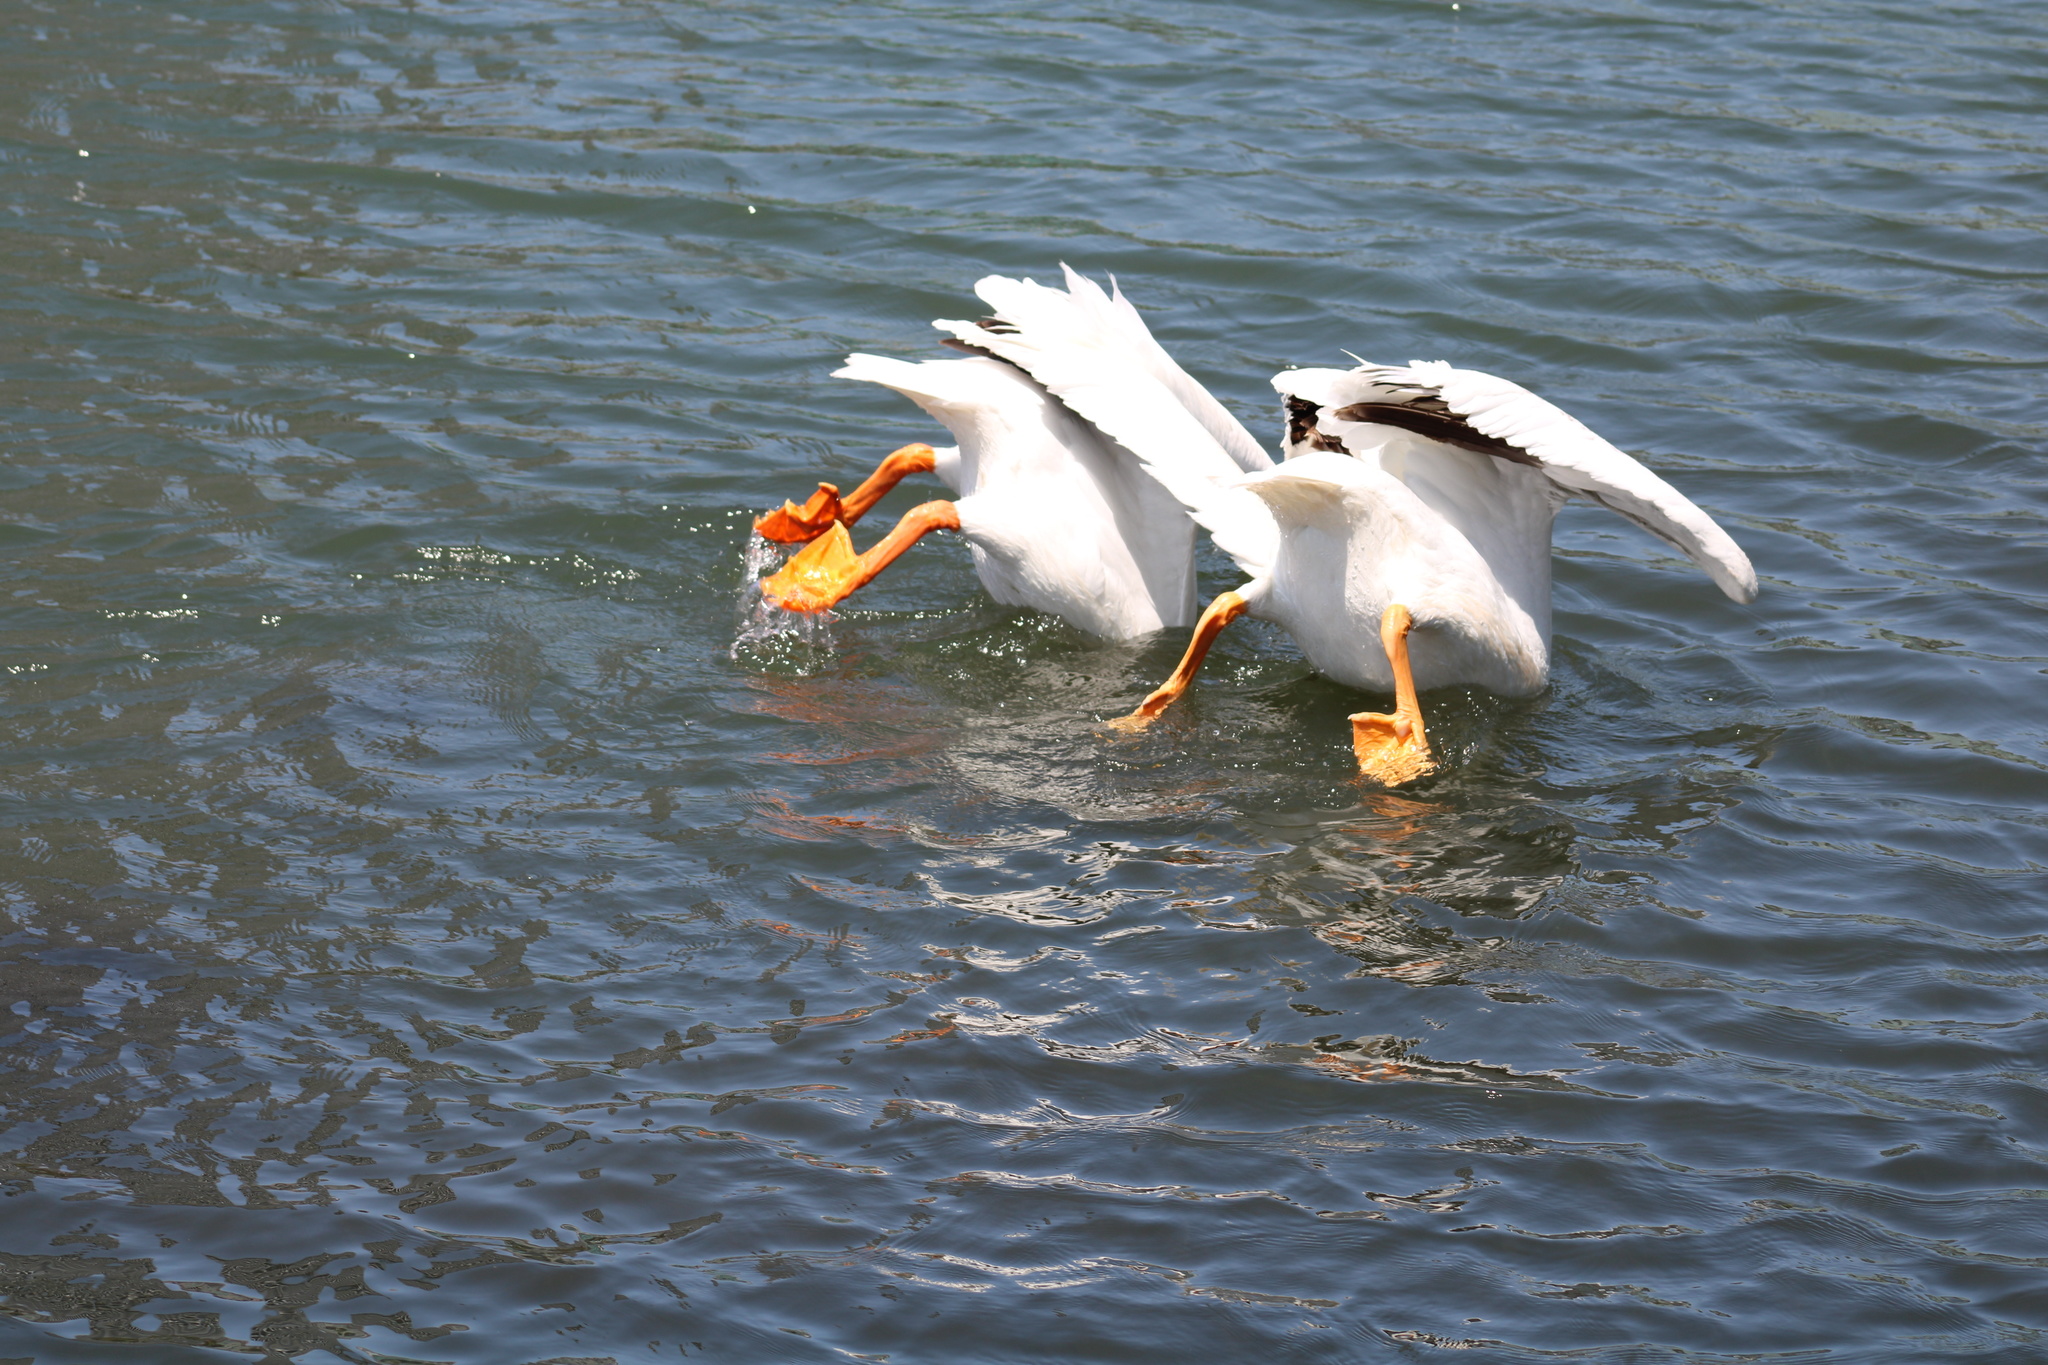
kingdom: Animalia
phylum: Chordata
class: Aves
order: Pelecaniformes
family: Pelecanidae
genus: Pelecanus
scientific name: Pelecanus erythrorhynchos
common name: American white pelican
